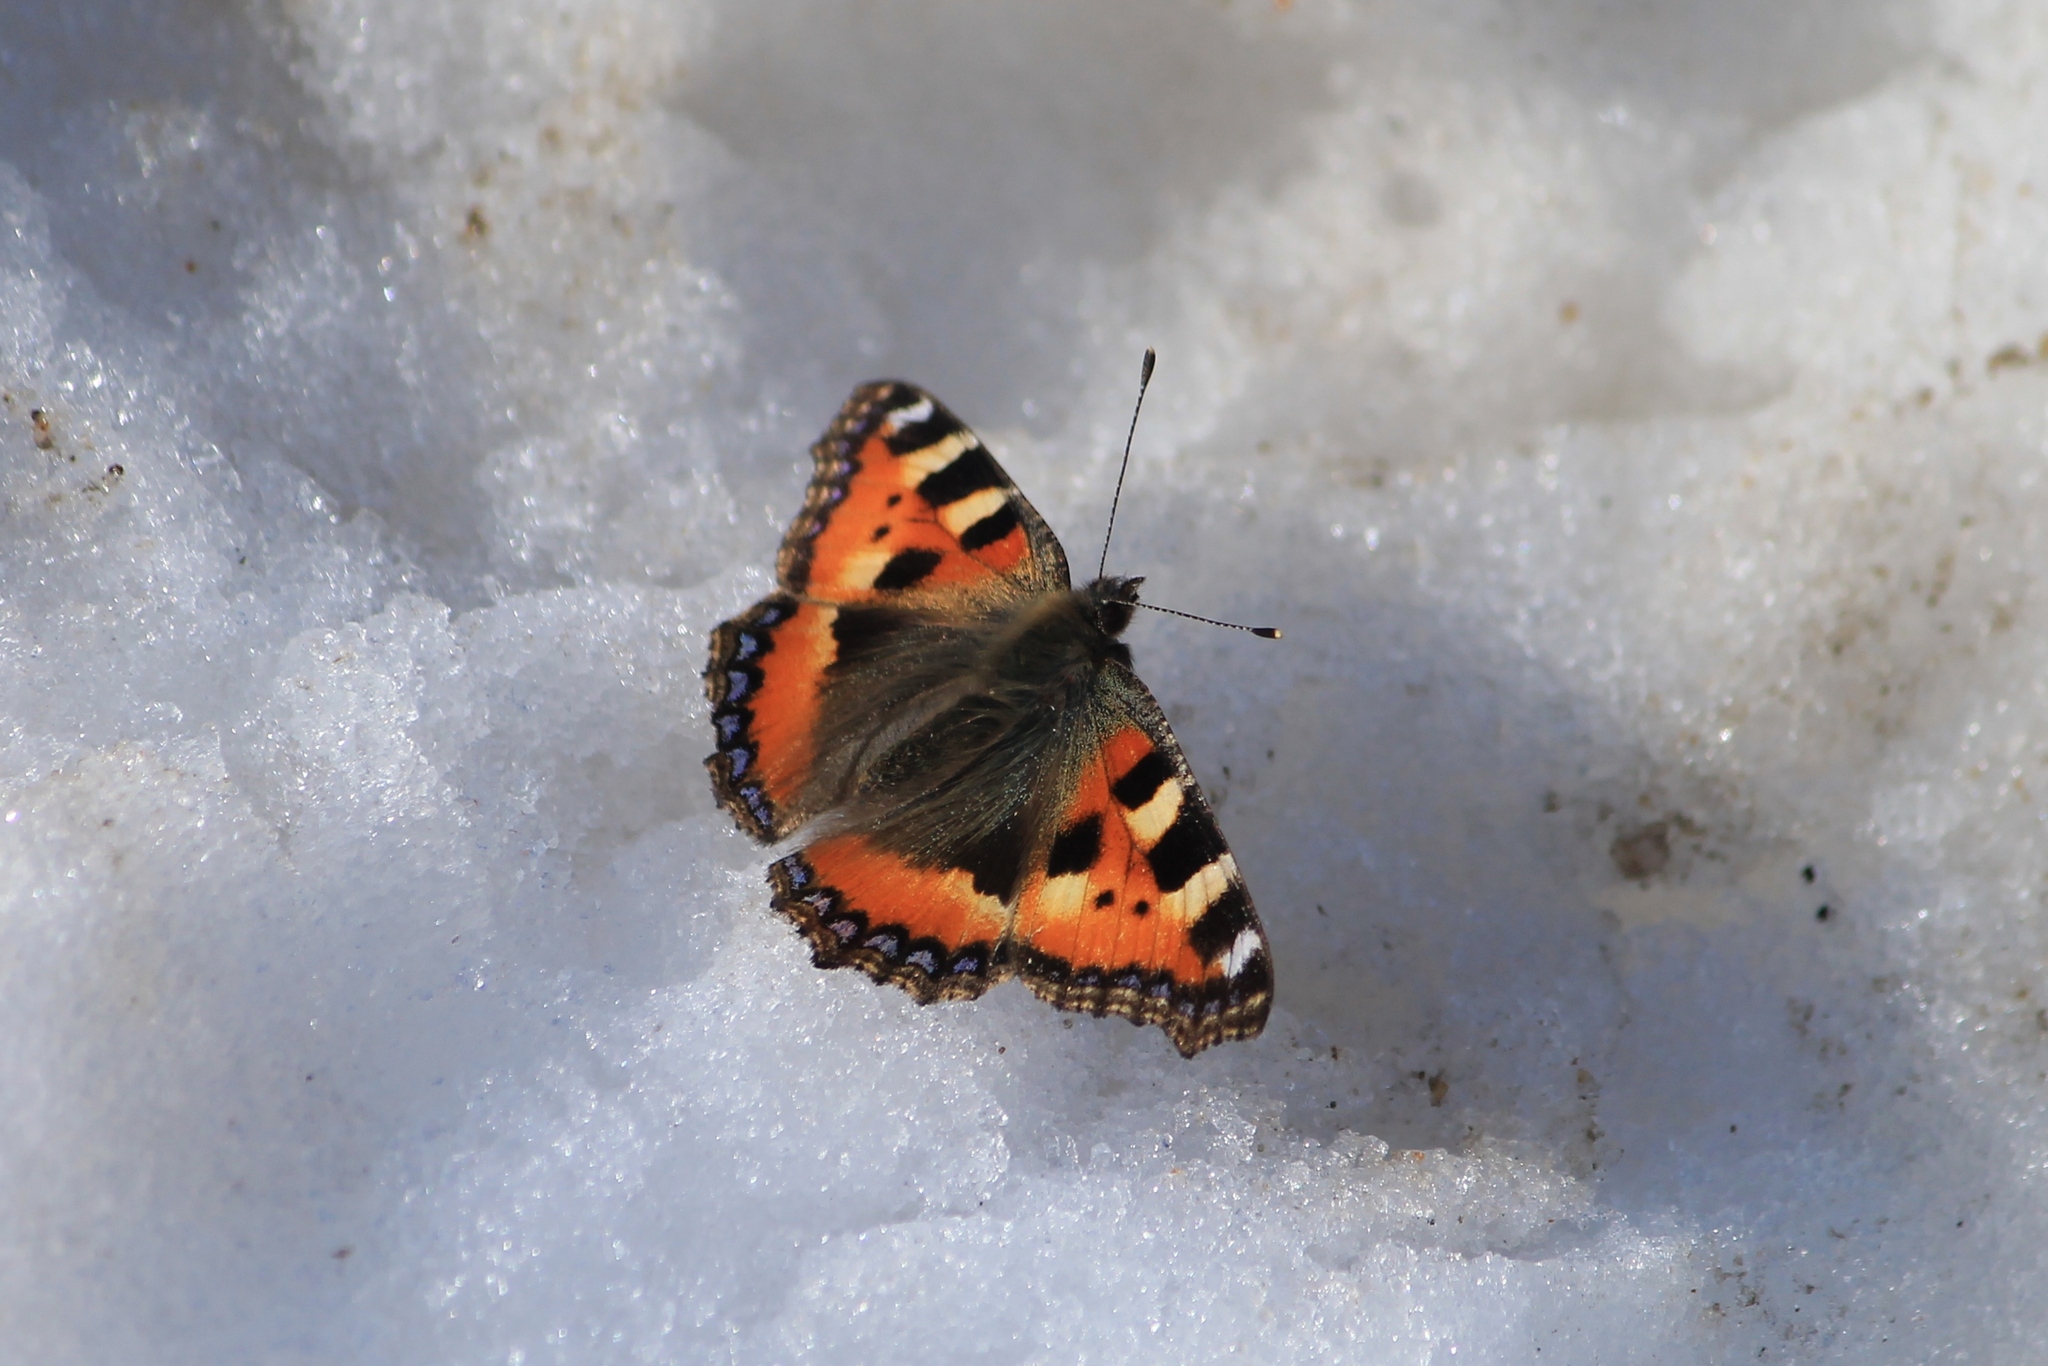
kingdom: Animalia
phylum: Arthropoda
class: Insecta
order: Lepidoptera
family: Nymphalidae
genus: Aglais
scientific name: Aglais urticae
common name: Small tortoiseshell
